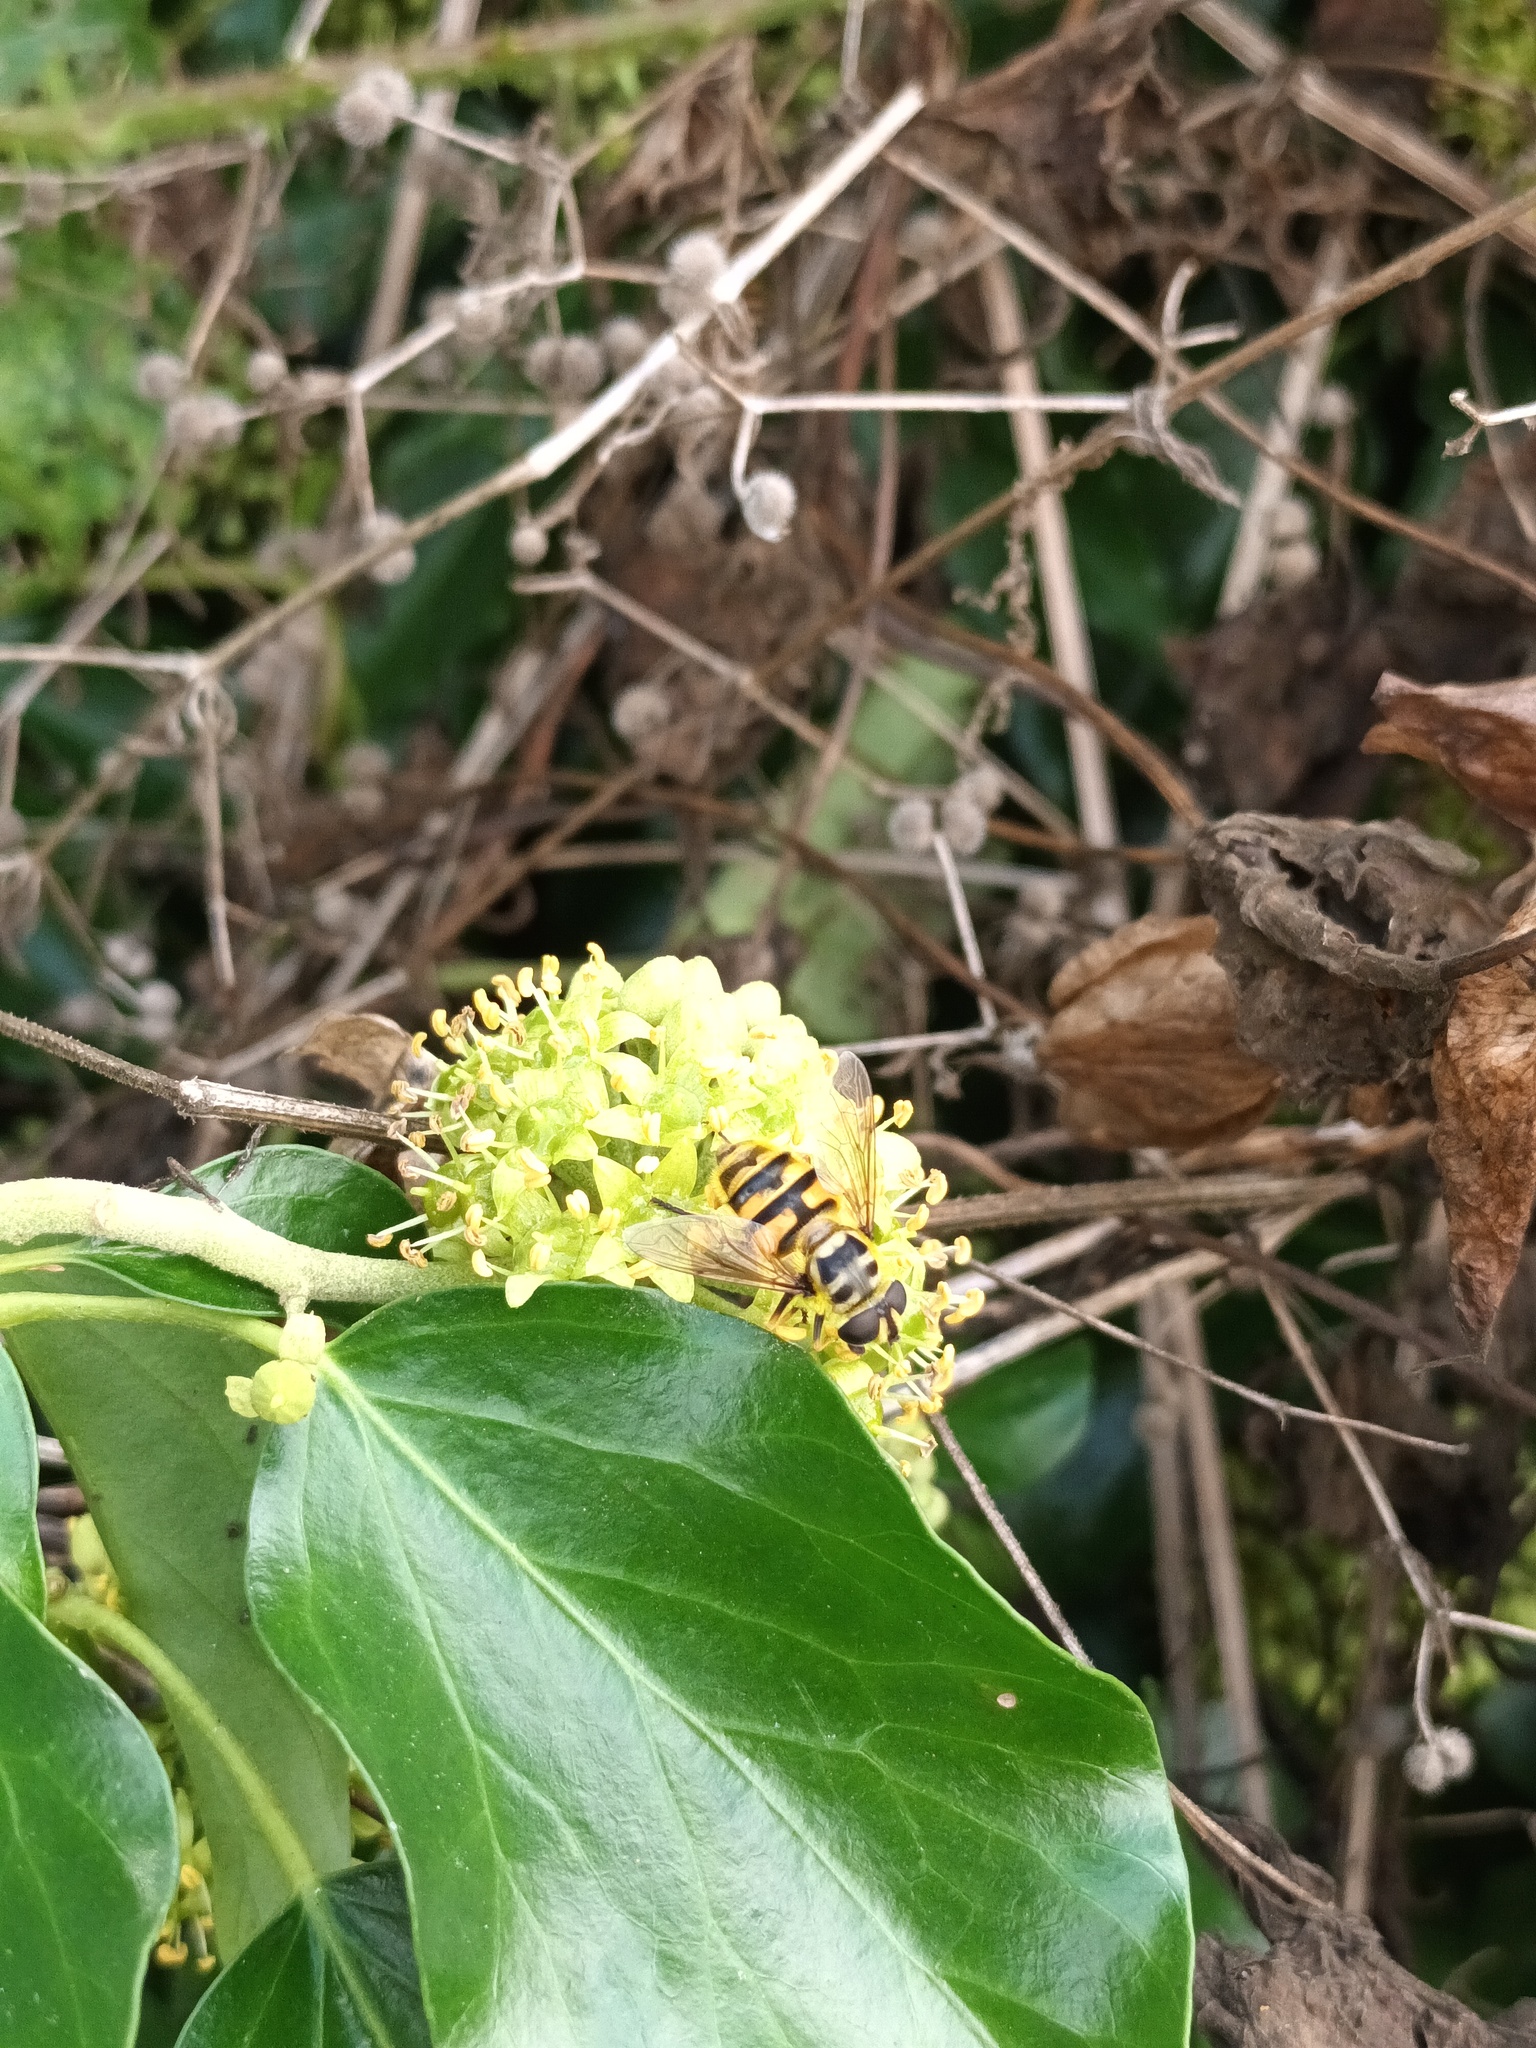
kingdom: Animalia
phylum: Arthropoda
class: Insecta
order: Diptera
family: Syrphidae
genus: Myathropa
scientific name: Myathropa florea
